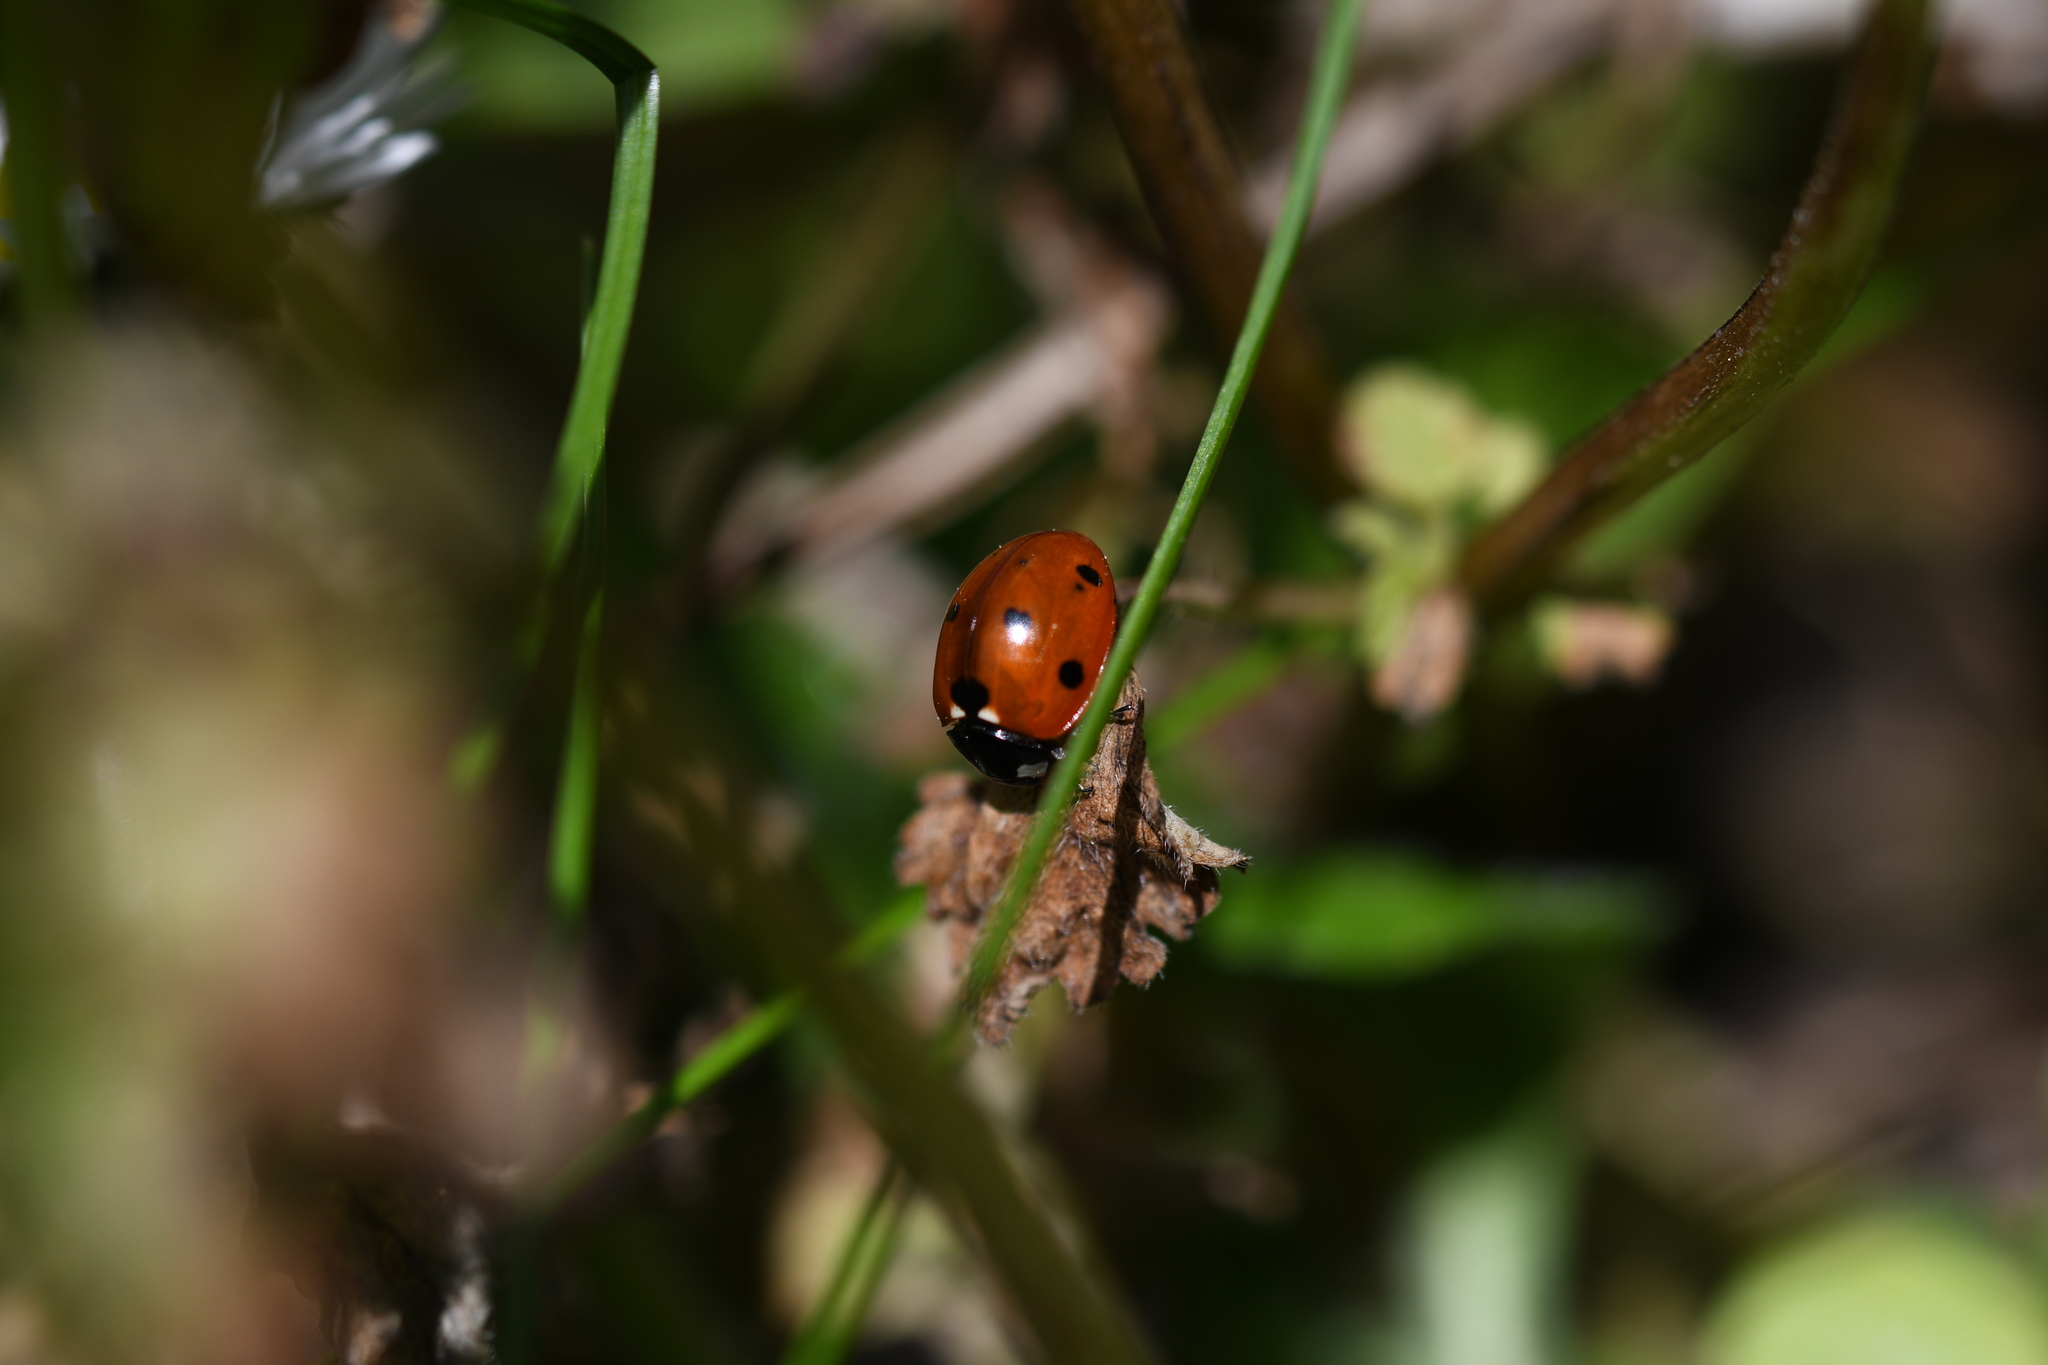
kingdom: Animalia
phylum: Arthropoda
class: Insecta
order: Coleoptera
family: Coccinellidae
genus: Coccinella
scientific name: Coccinella septempunctata
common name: Sevenspotted lady beetle
